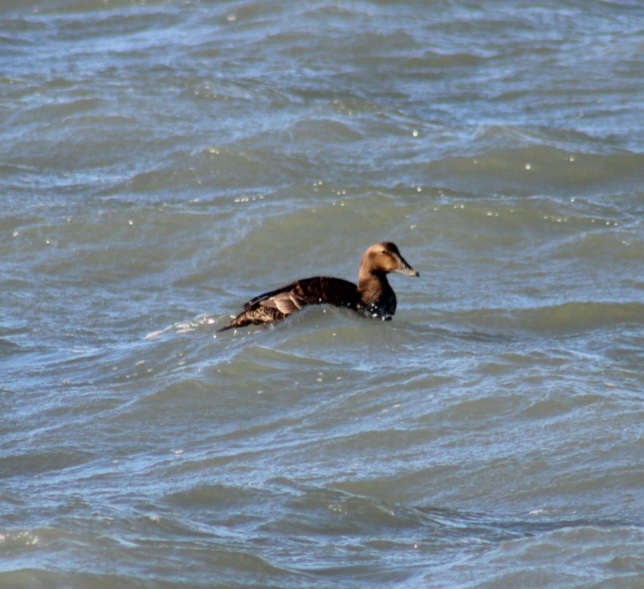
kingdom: Animalia
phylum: Chordata
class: Aves
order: Anseriformes
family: Anatidae
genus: Somateria
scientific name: Somateria mollissima
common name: Common eider
